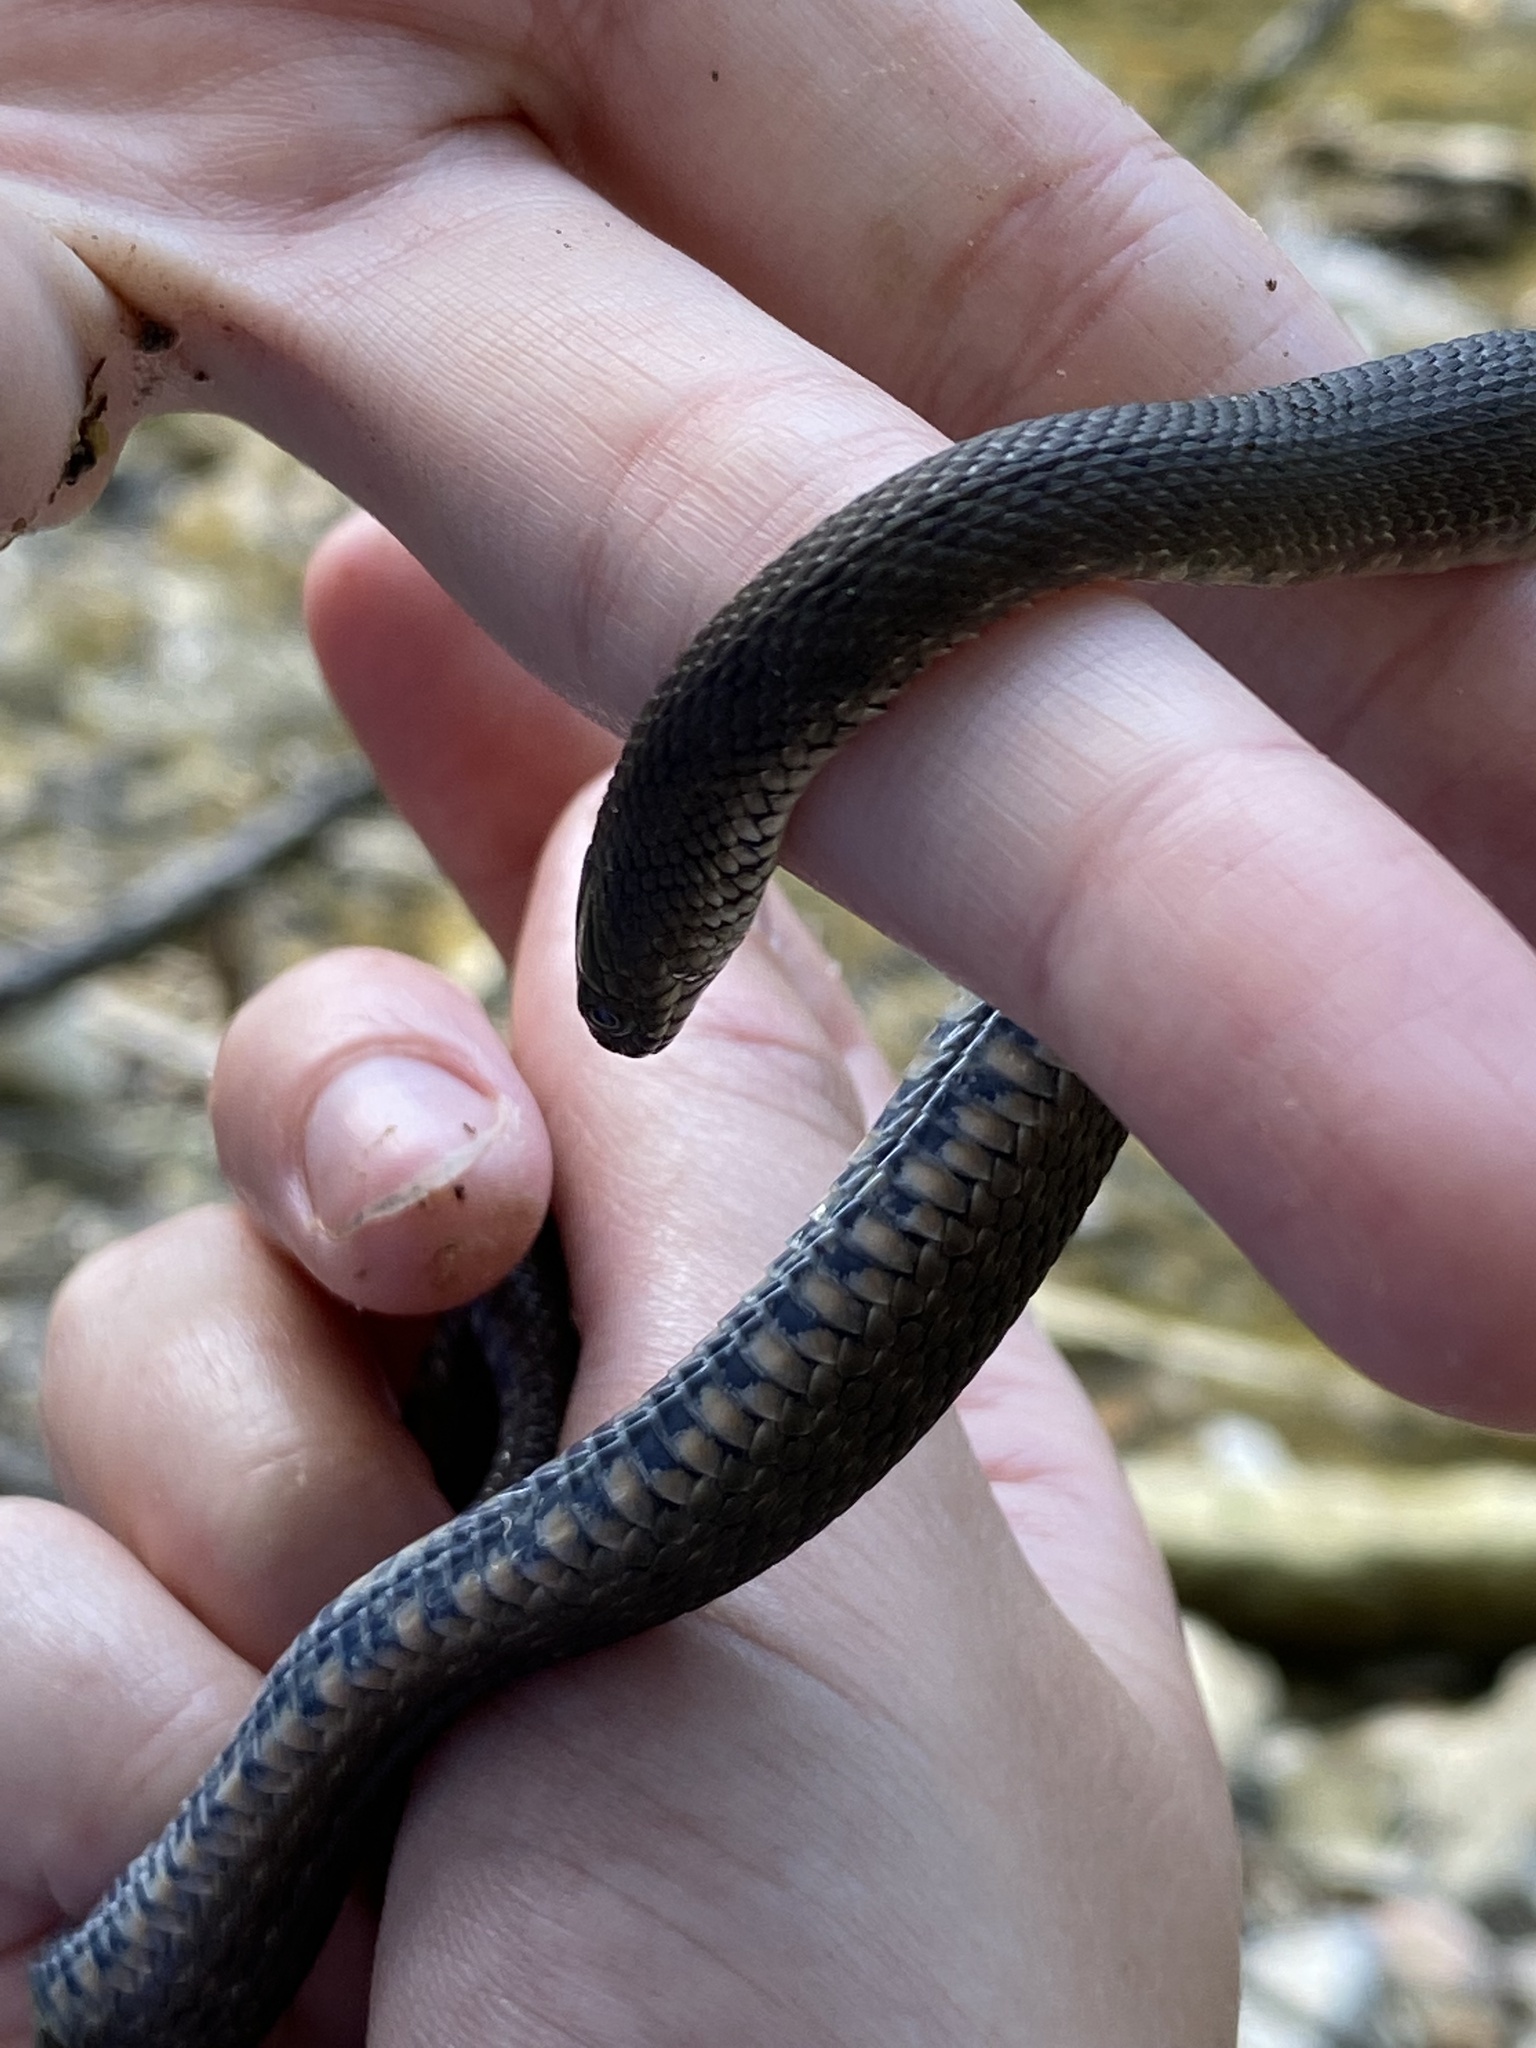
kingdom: Animalia
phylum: Chordata
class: Squamata
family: Colubridae
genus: Natrix
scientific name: Natrix tessellata
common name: Dice snake
